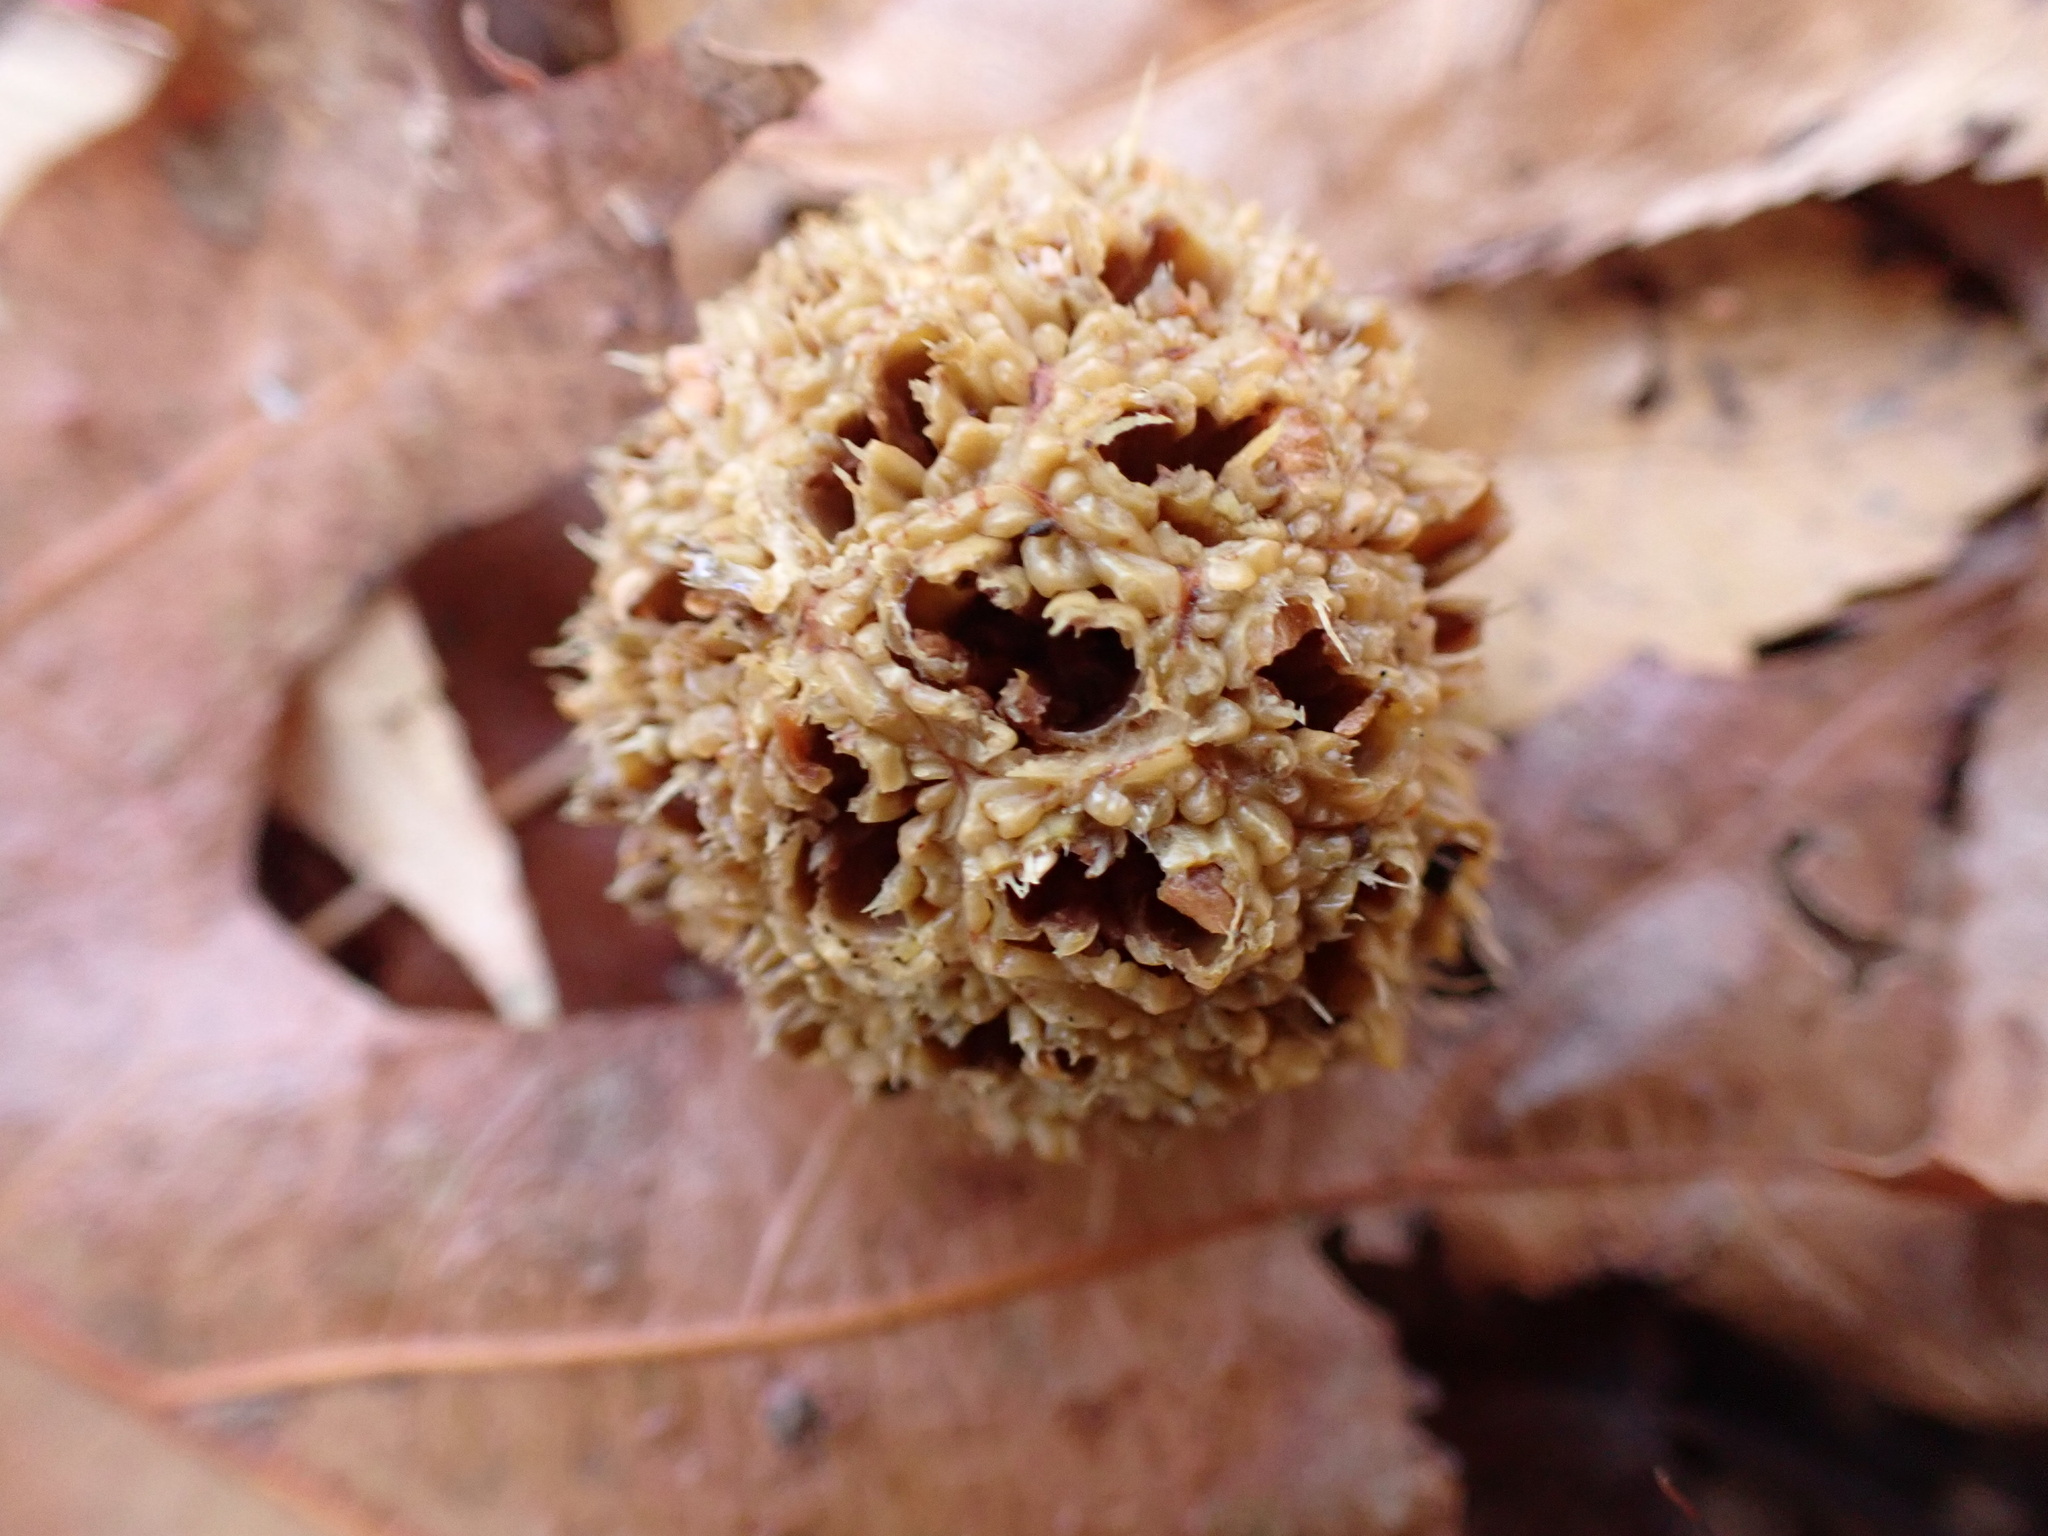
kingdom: Plantae
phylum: Tracheophyta
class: Magnoliopsida
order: Saxifragales
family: Altingiaceae
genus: Liquidambar
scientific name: Liquidambar styraciflua
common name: Sweet gum
